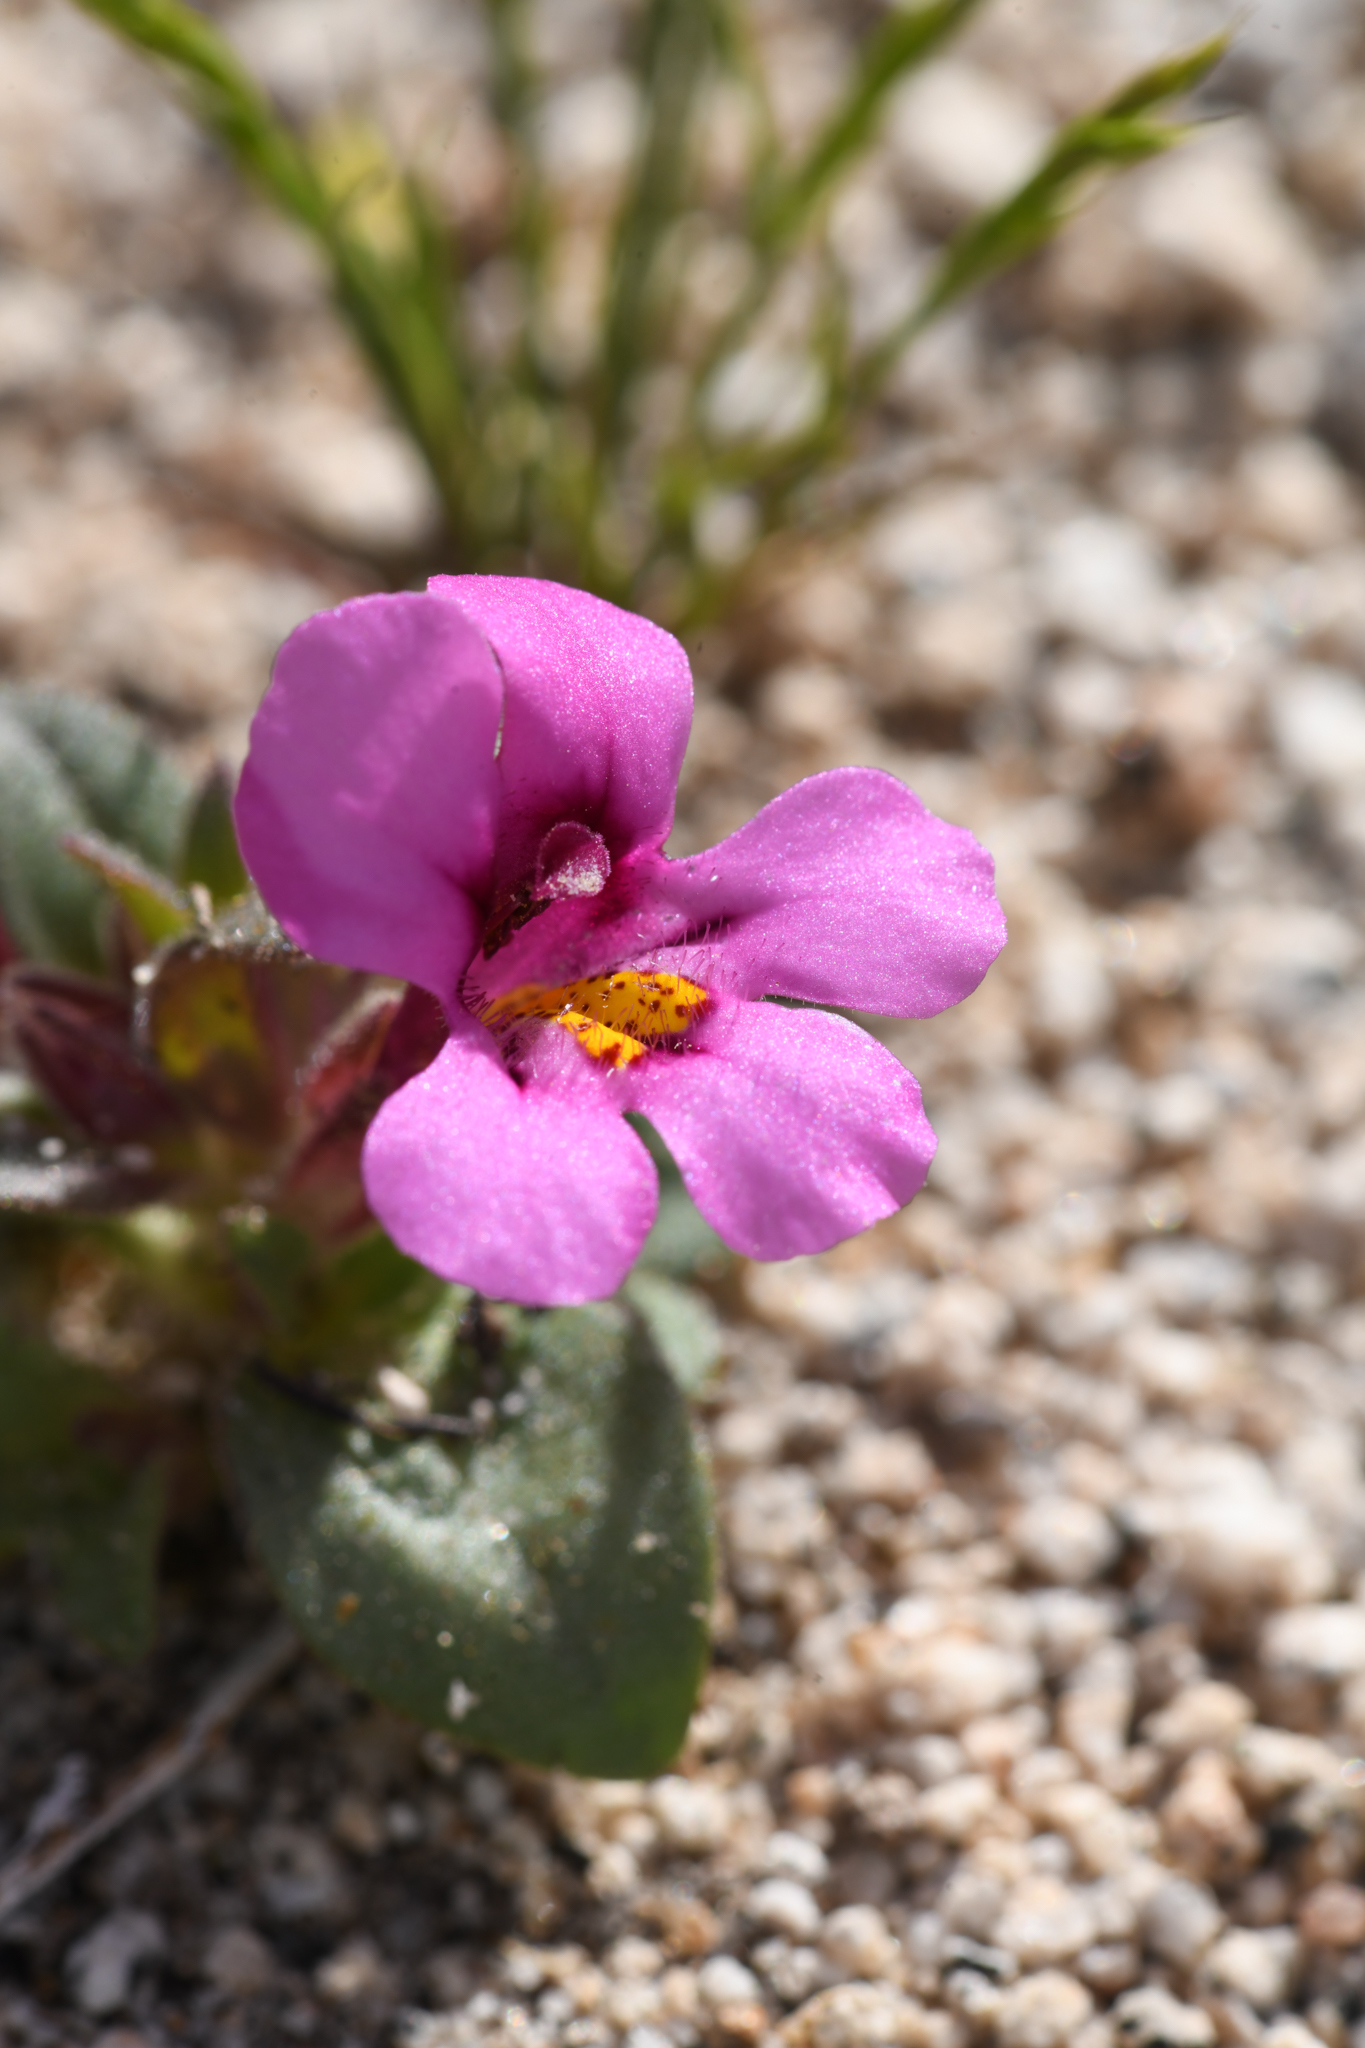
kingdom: Plantae
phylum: Tracheophyta
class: Magnoliopsida
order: Lamiales
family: Phrymaceae
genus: Diplacus
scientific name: Diplacus ovatus
